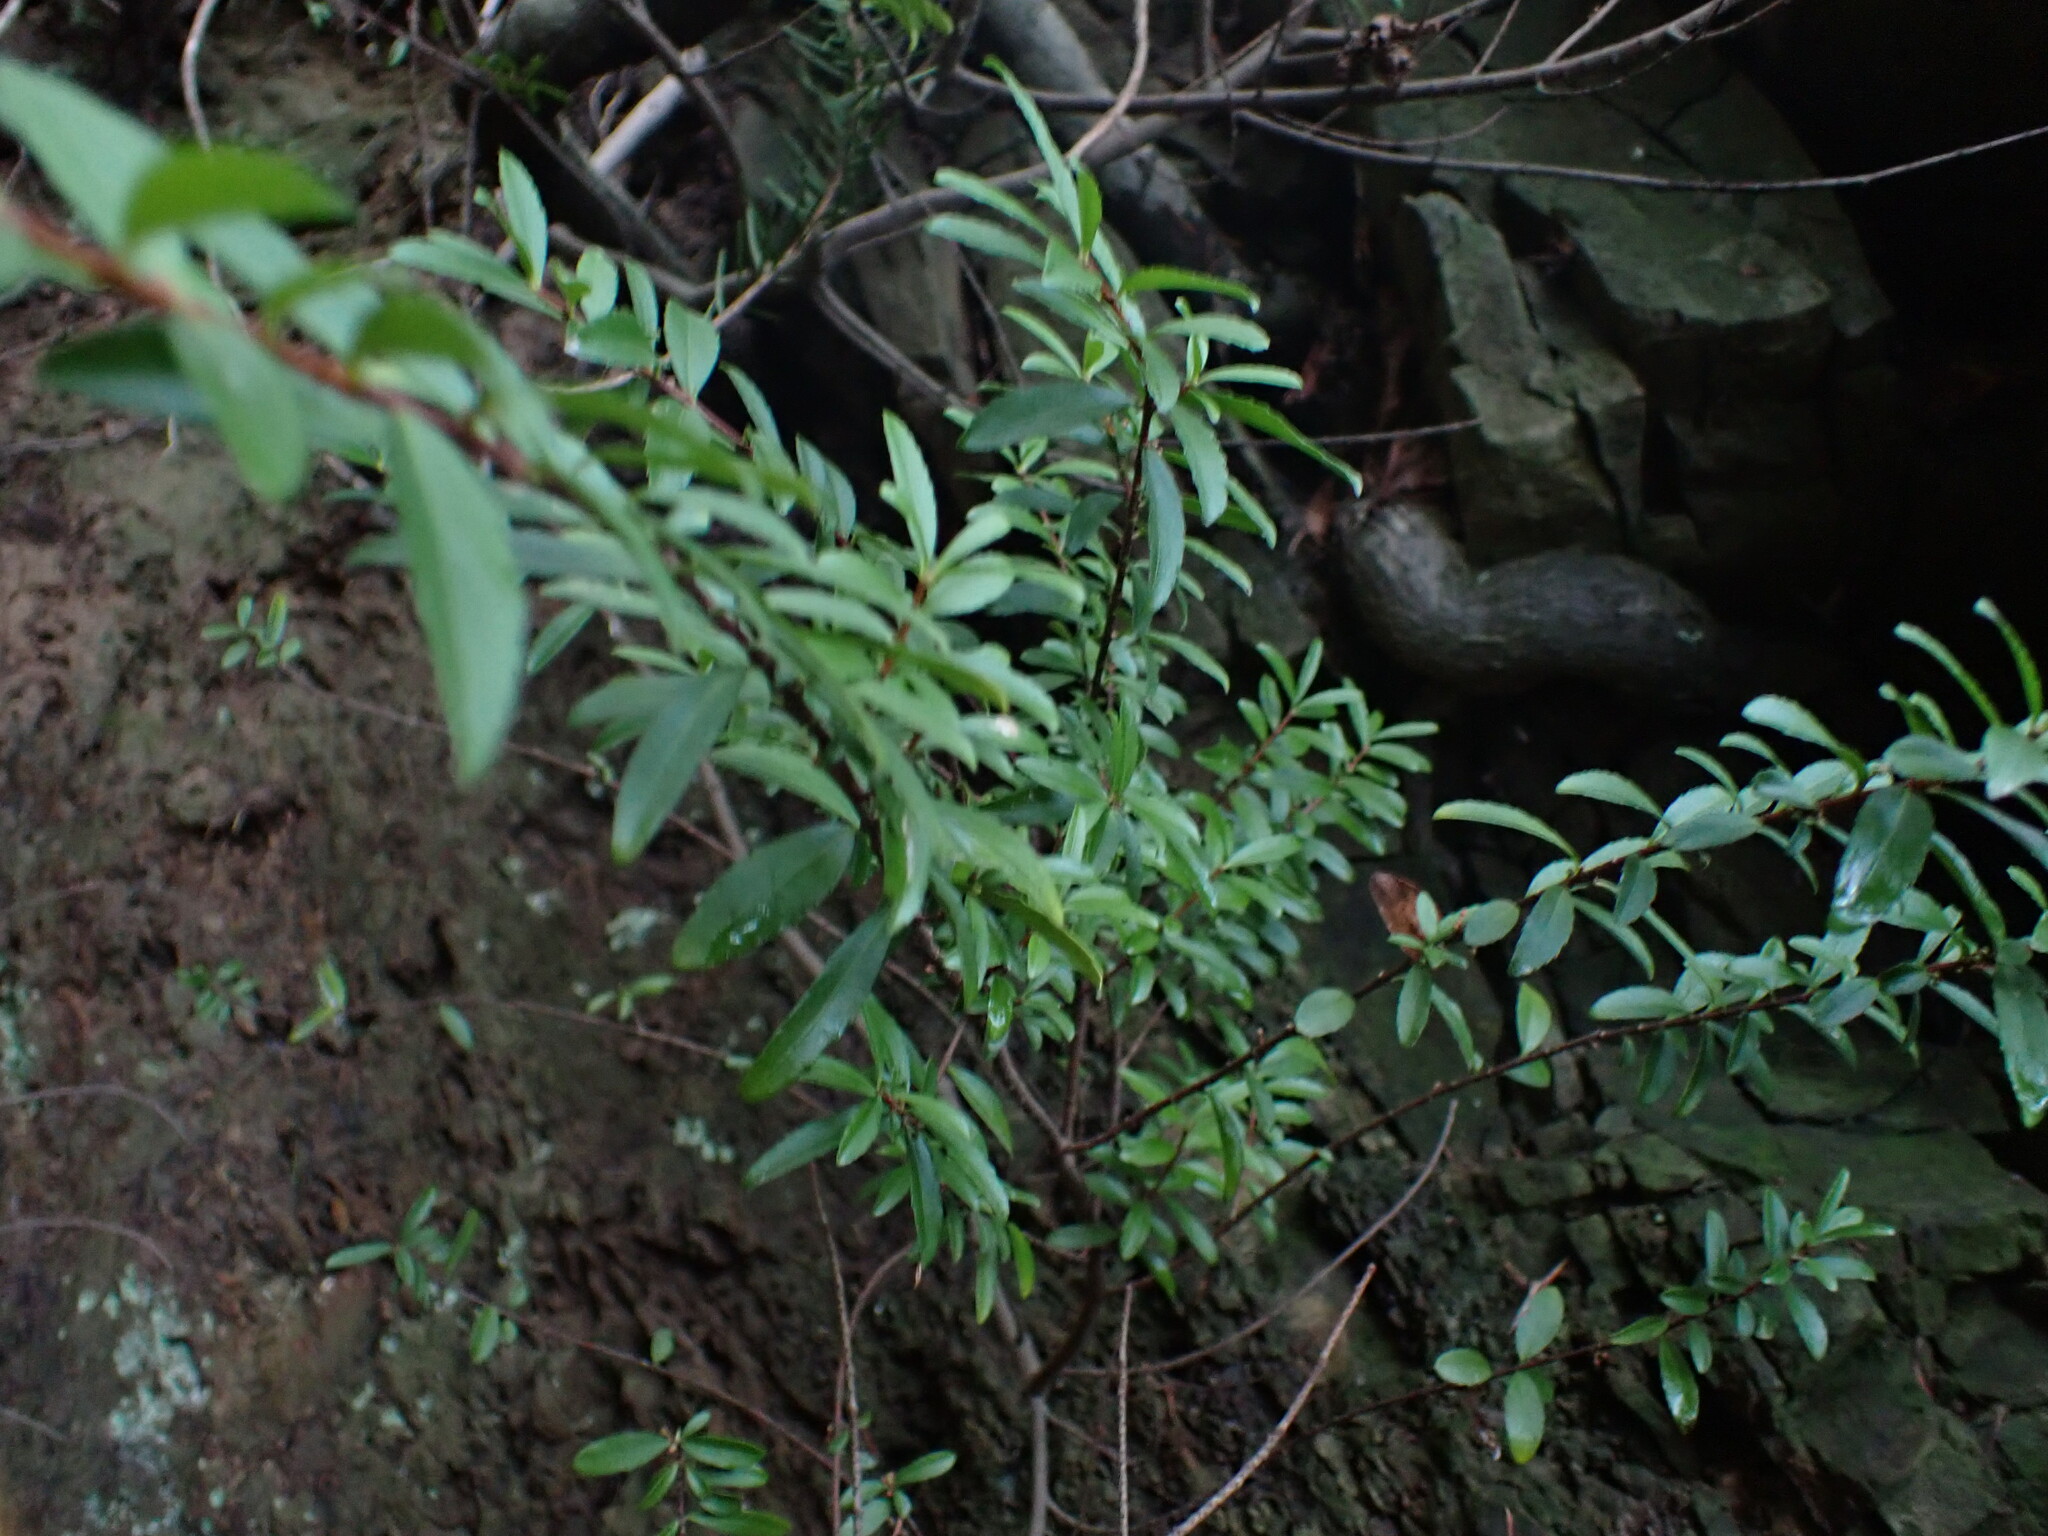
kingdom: Plantae
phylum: Tracheophyta
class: Magnoliopsida
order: Celastrales
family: Celastraceae
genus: Paxistima
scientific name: Paxistima myrsinites
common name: Mountain-lover
